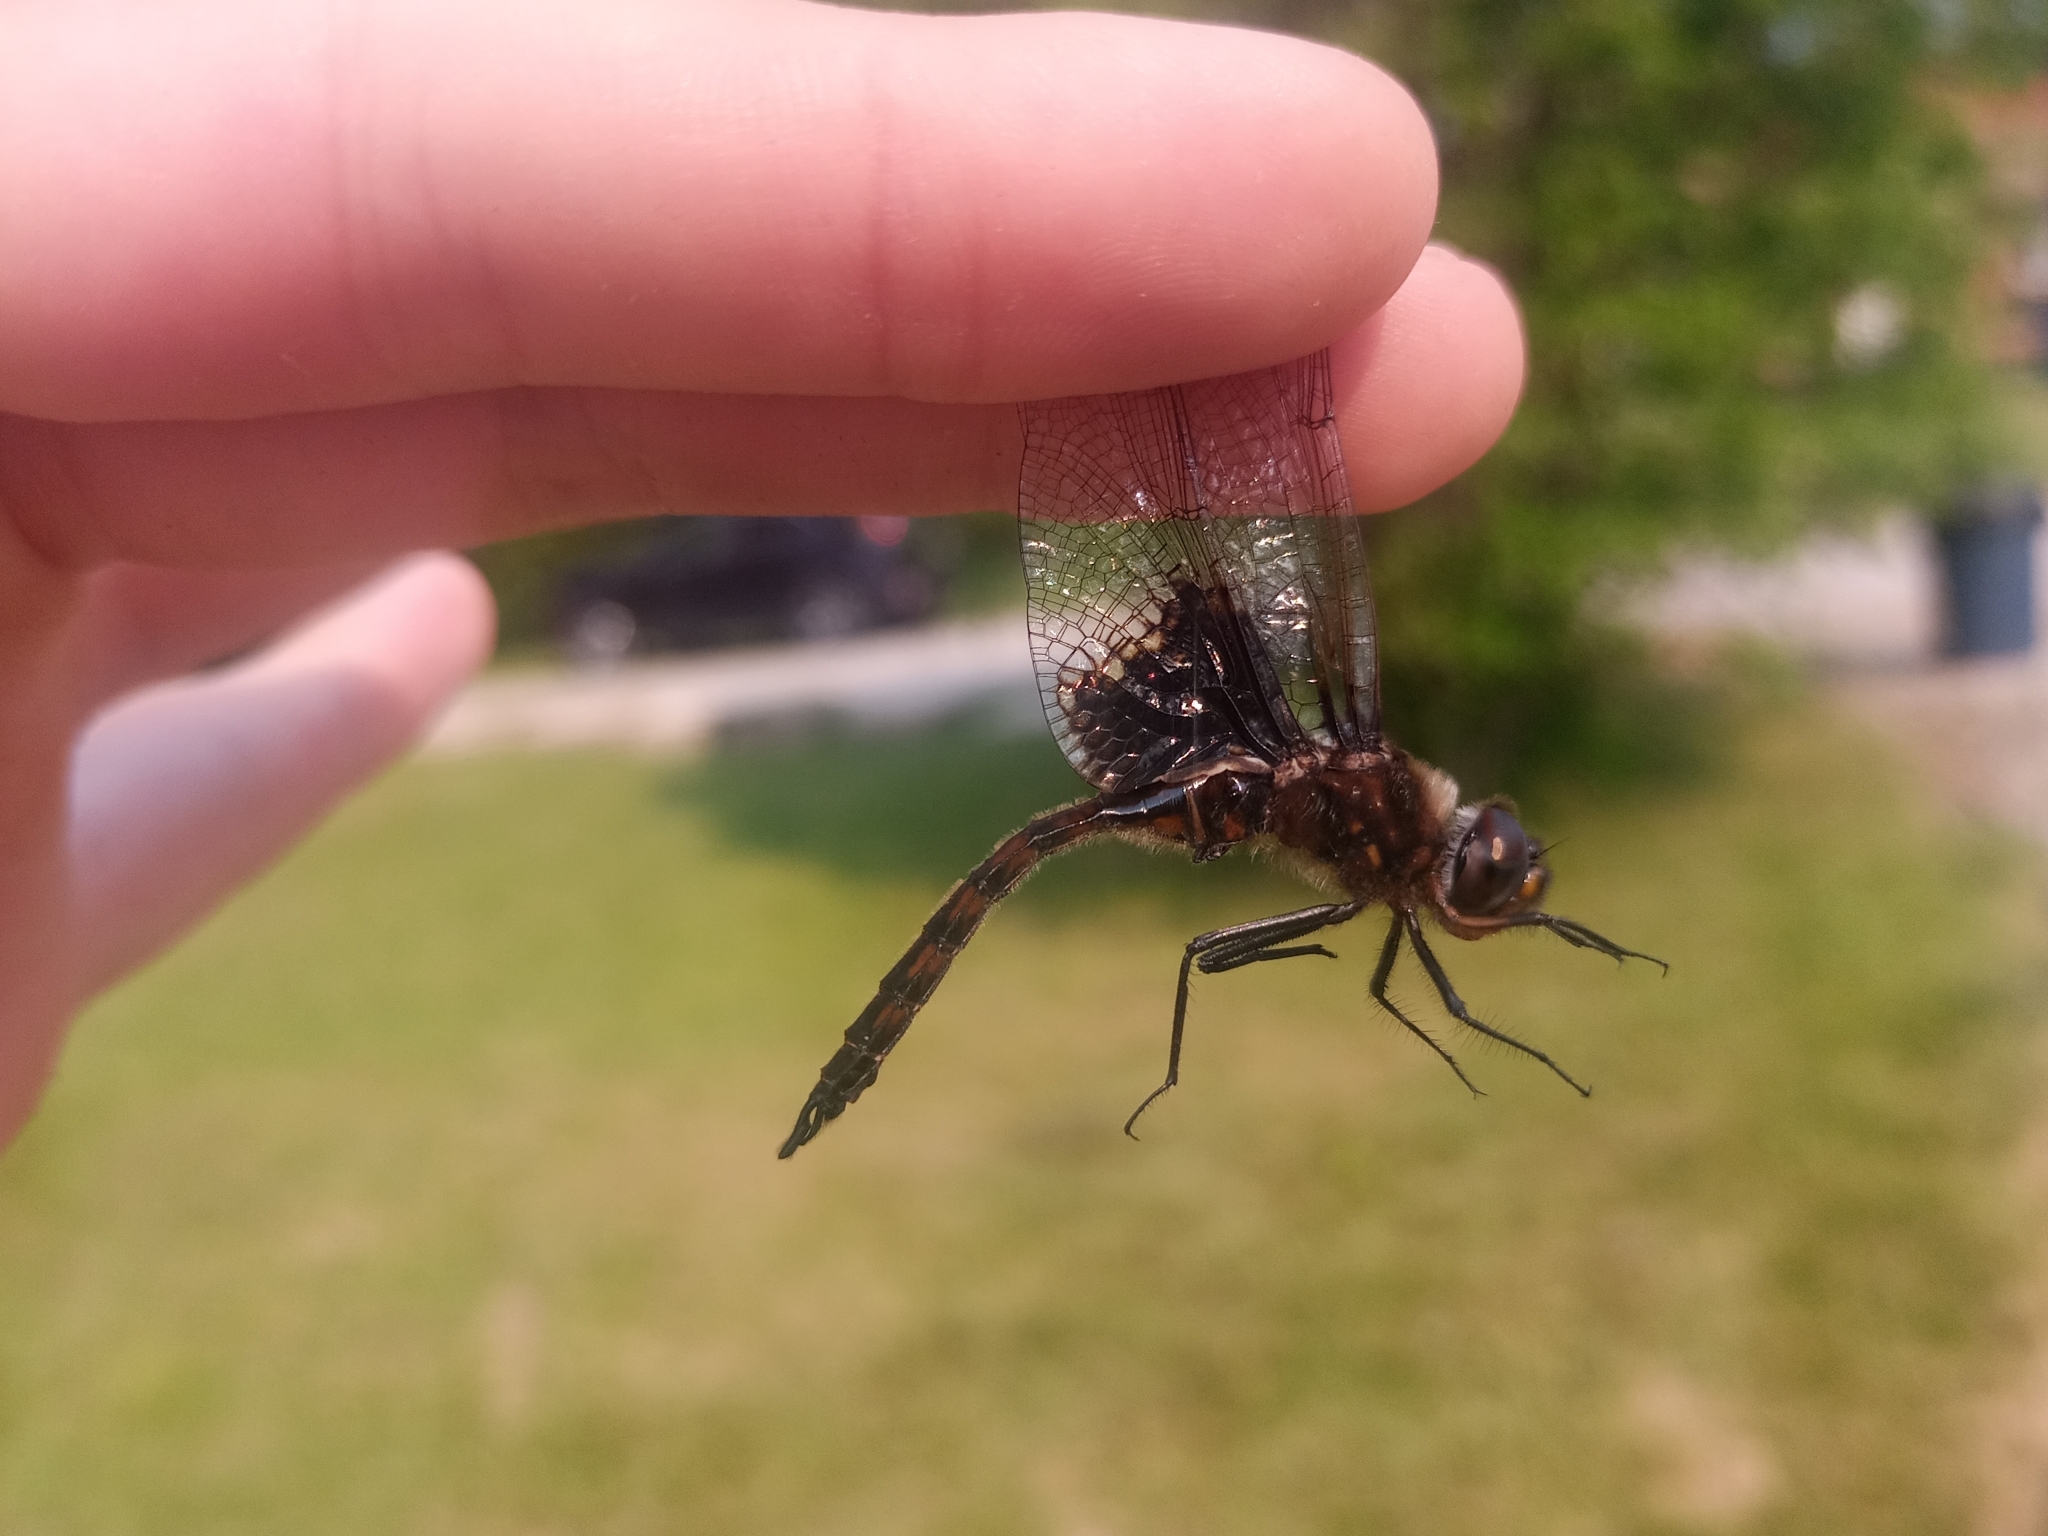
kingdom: Animalia
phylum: Arthropoda
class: Insecta
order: Odonata
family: Corduliidae
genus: Epitheca
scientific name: Epitheca cynosura
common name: Common baskettail
